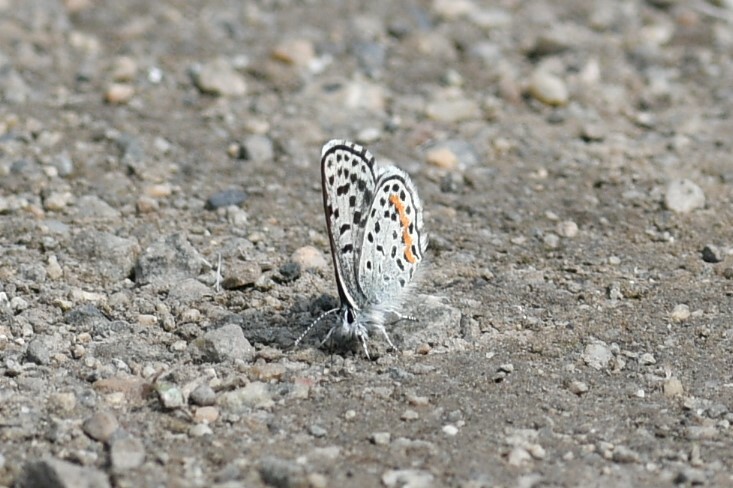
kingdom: Animalia
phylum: Arthropoda
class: Insecta
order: Lepidoptera
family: Lycaenidae
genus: Euphilotes
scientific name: Euphilotes
